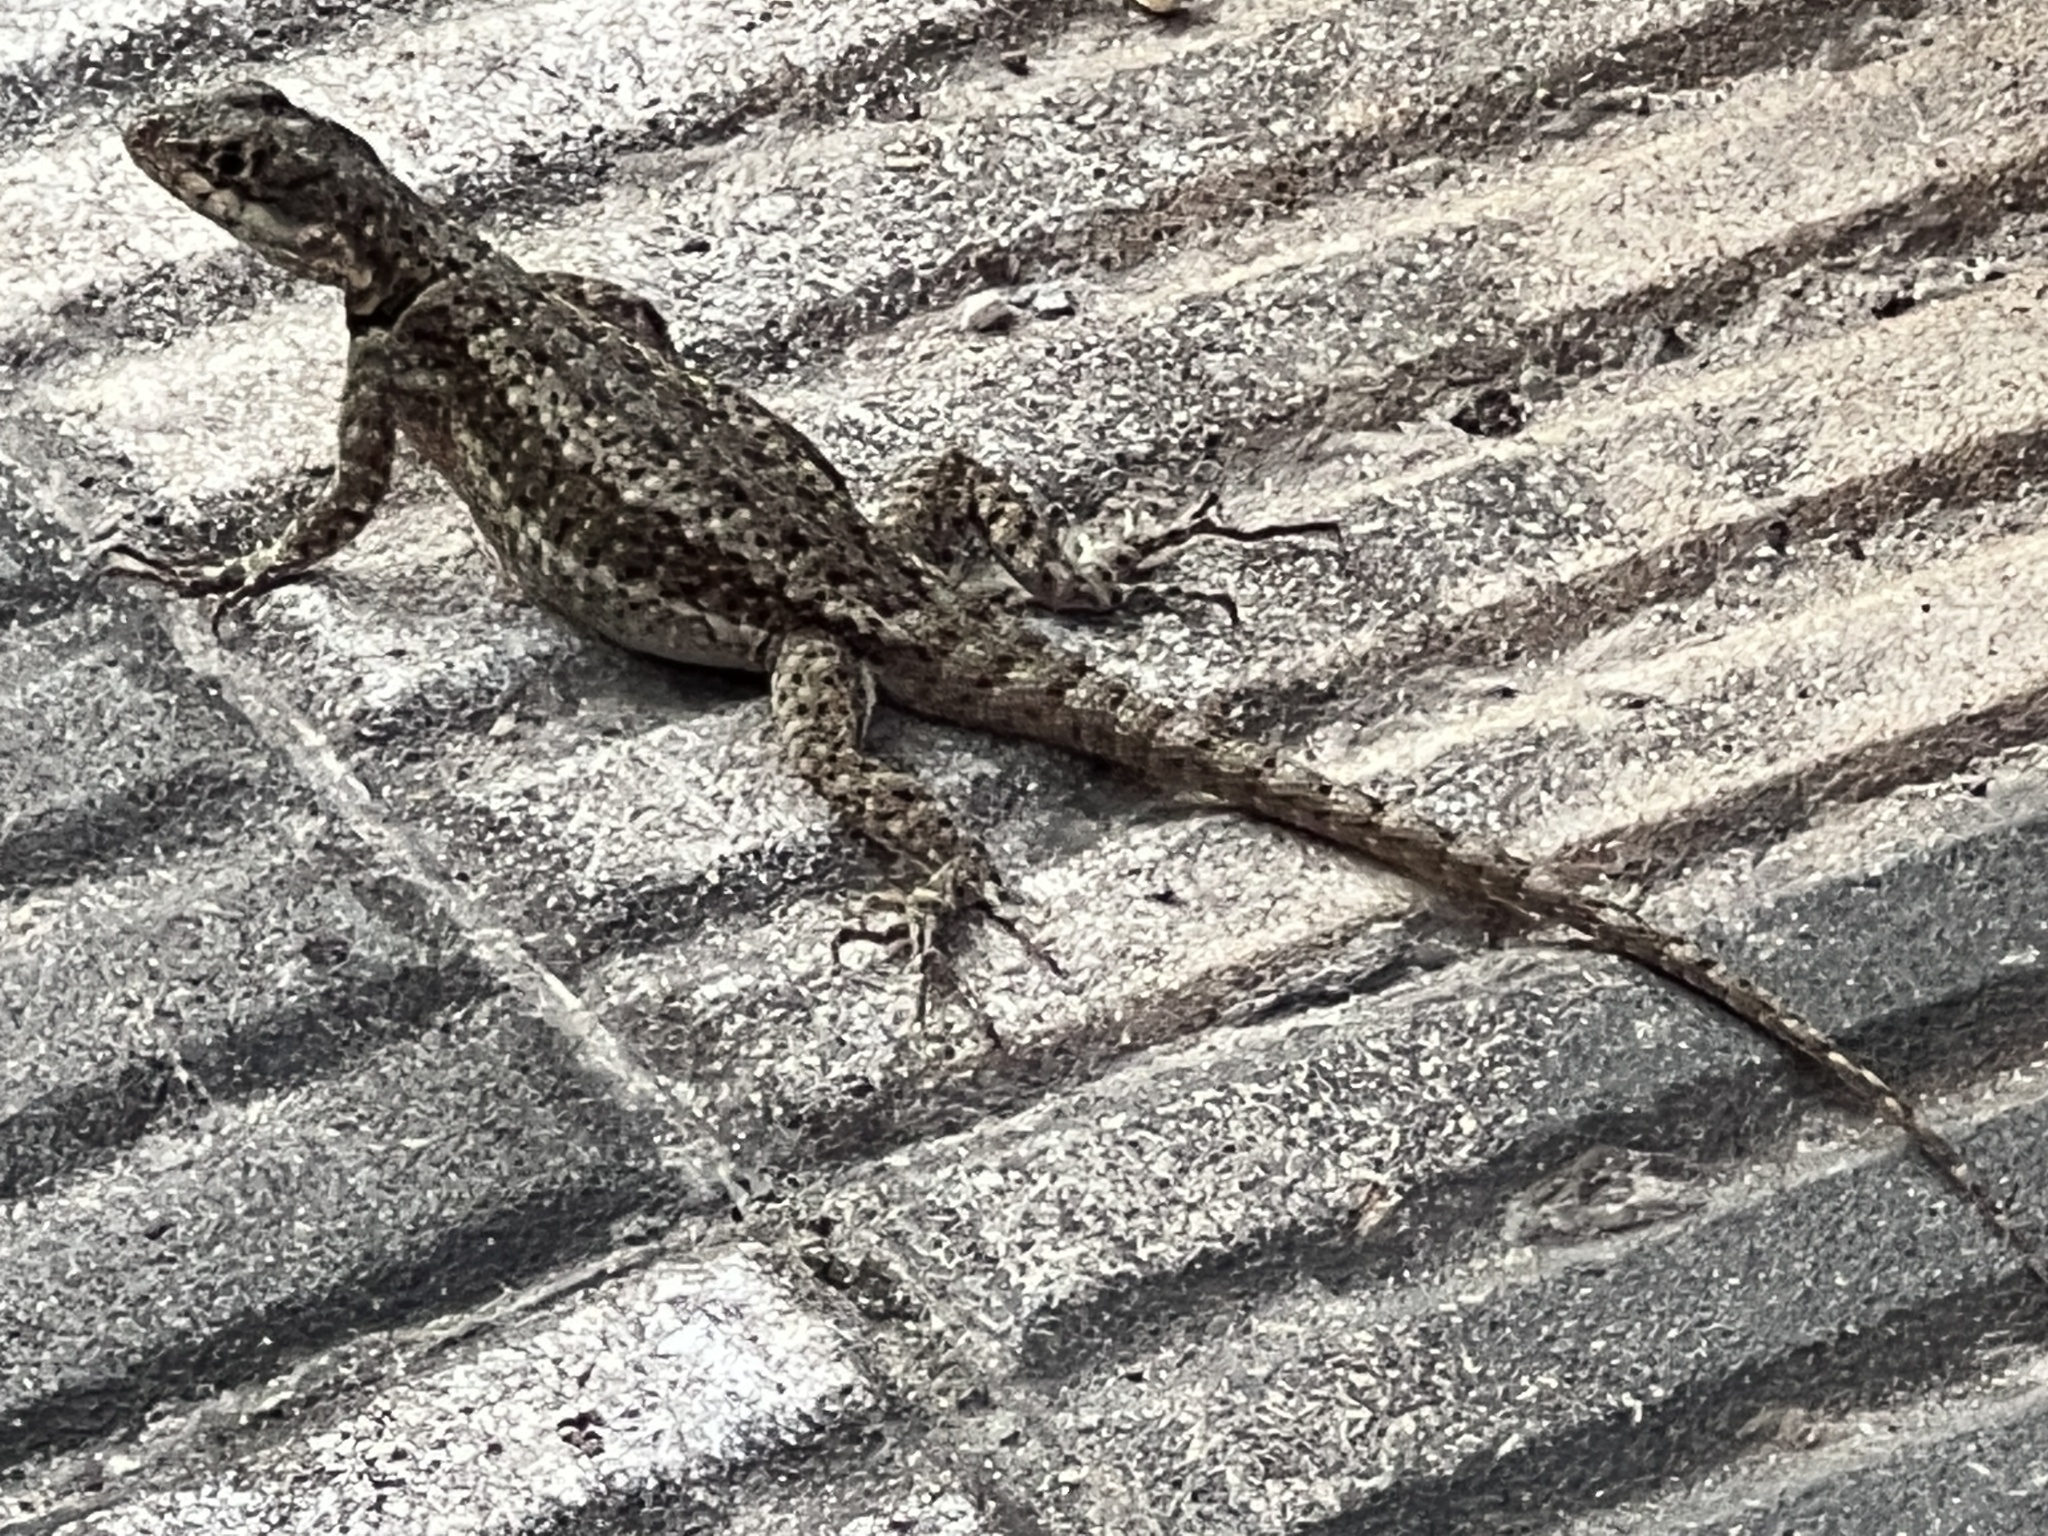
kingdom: Animalia
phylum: Chordata
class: Squamata
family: Tropiduridae
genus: Tropidurus
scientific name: Tropidurus catalanensis
